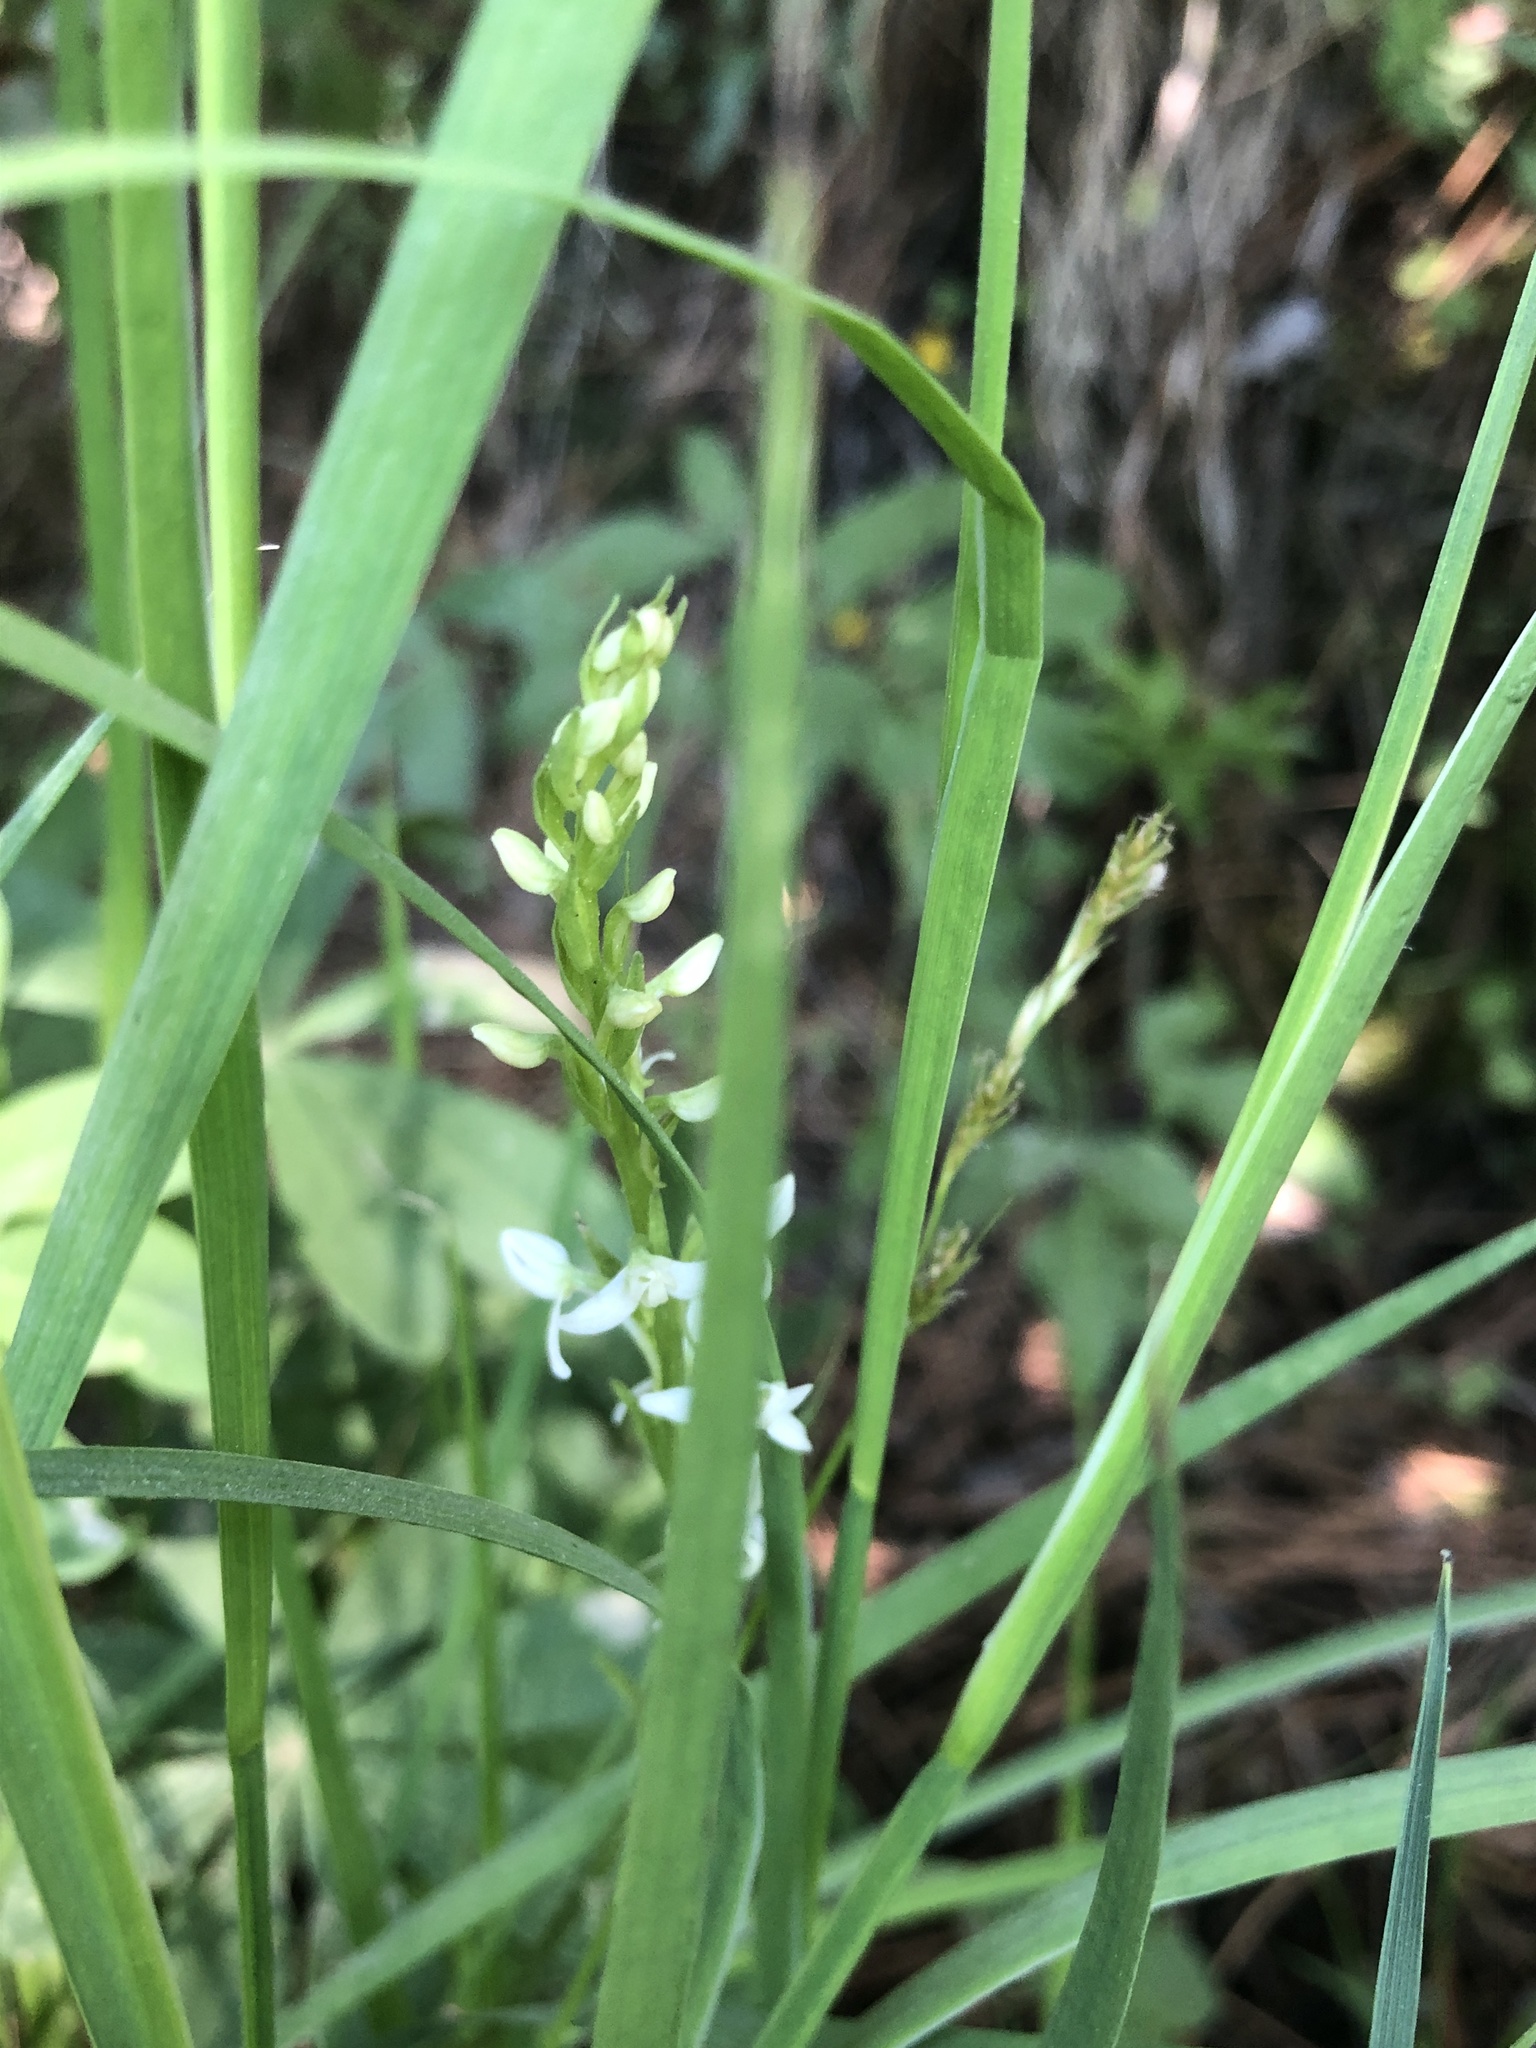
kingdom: Plantae
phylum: Tracheophyta
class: Liliopsida
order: Asparagales
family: Orchidaceae
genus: Platanthera
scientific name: Platanthera dilatata
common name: Bog candles
